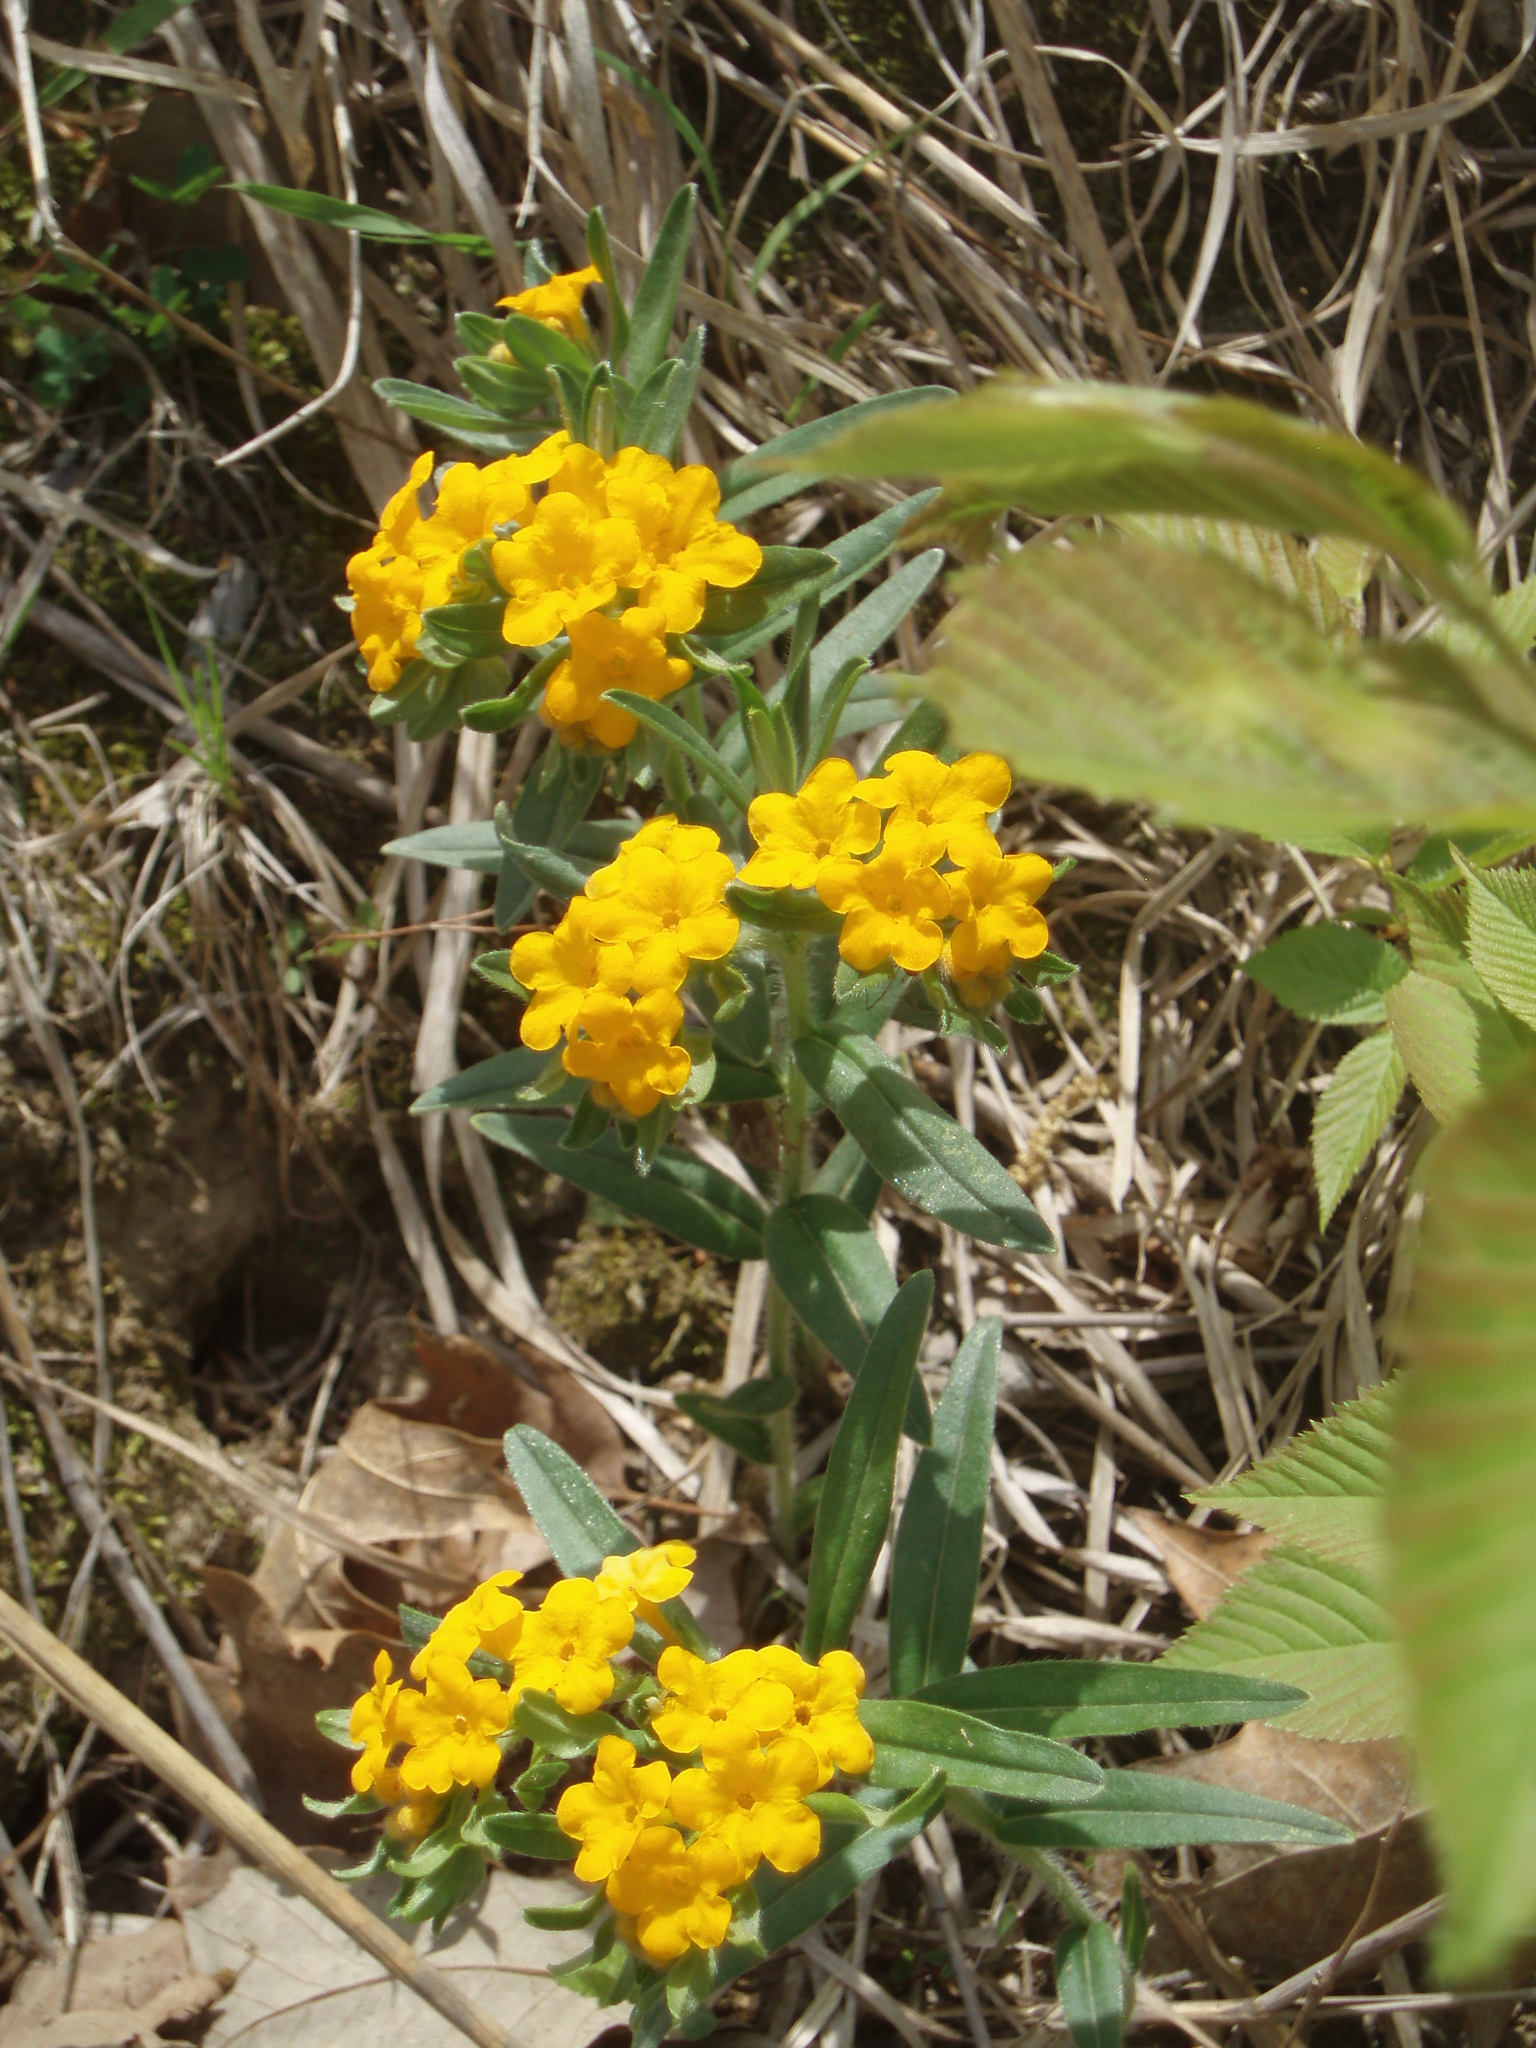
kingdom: Plantae
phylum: Tracheophyta
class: Magnoliopsida
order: Boraginales
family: Boraginaceae
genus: Lithospermum
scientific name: Lithospermum canescens
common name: Hoary puccoon
